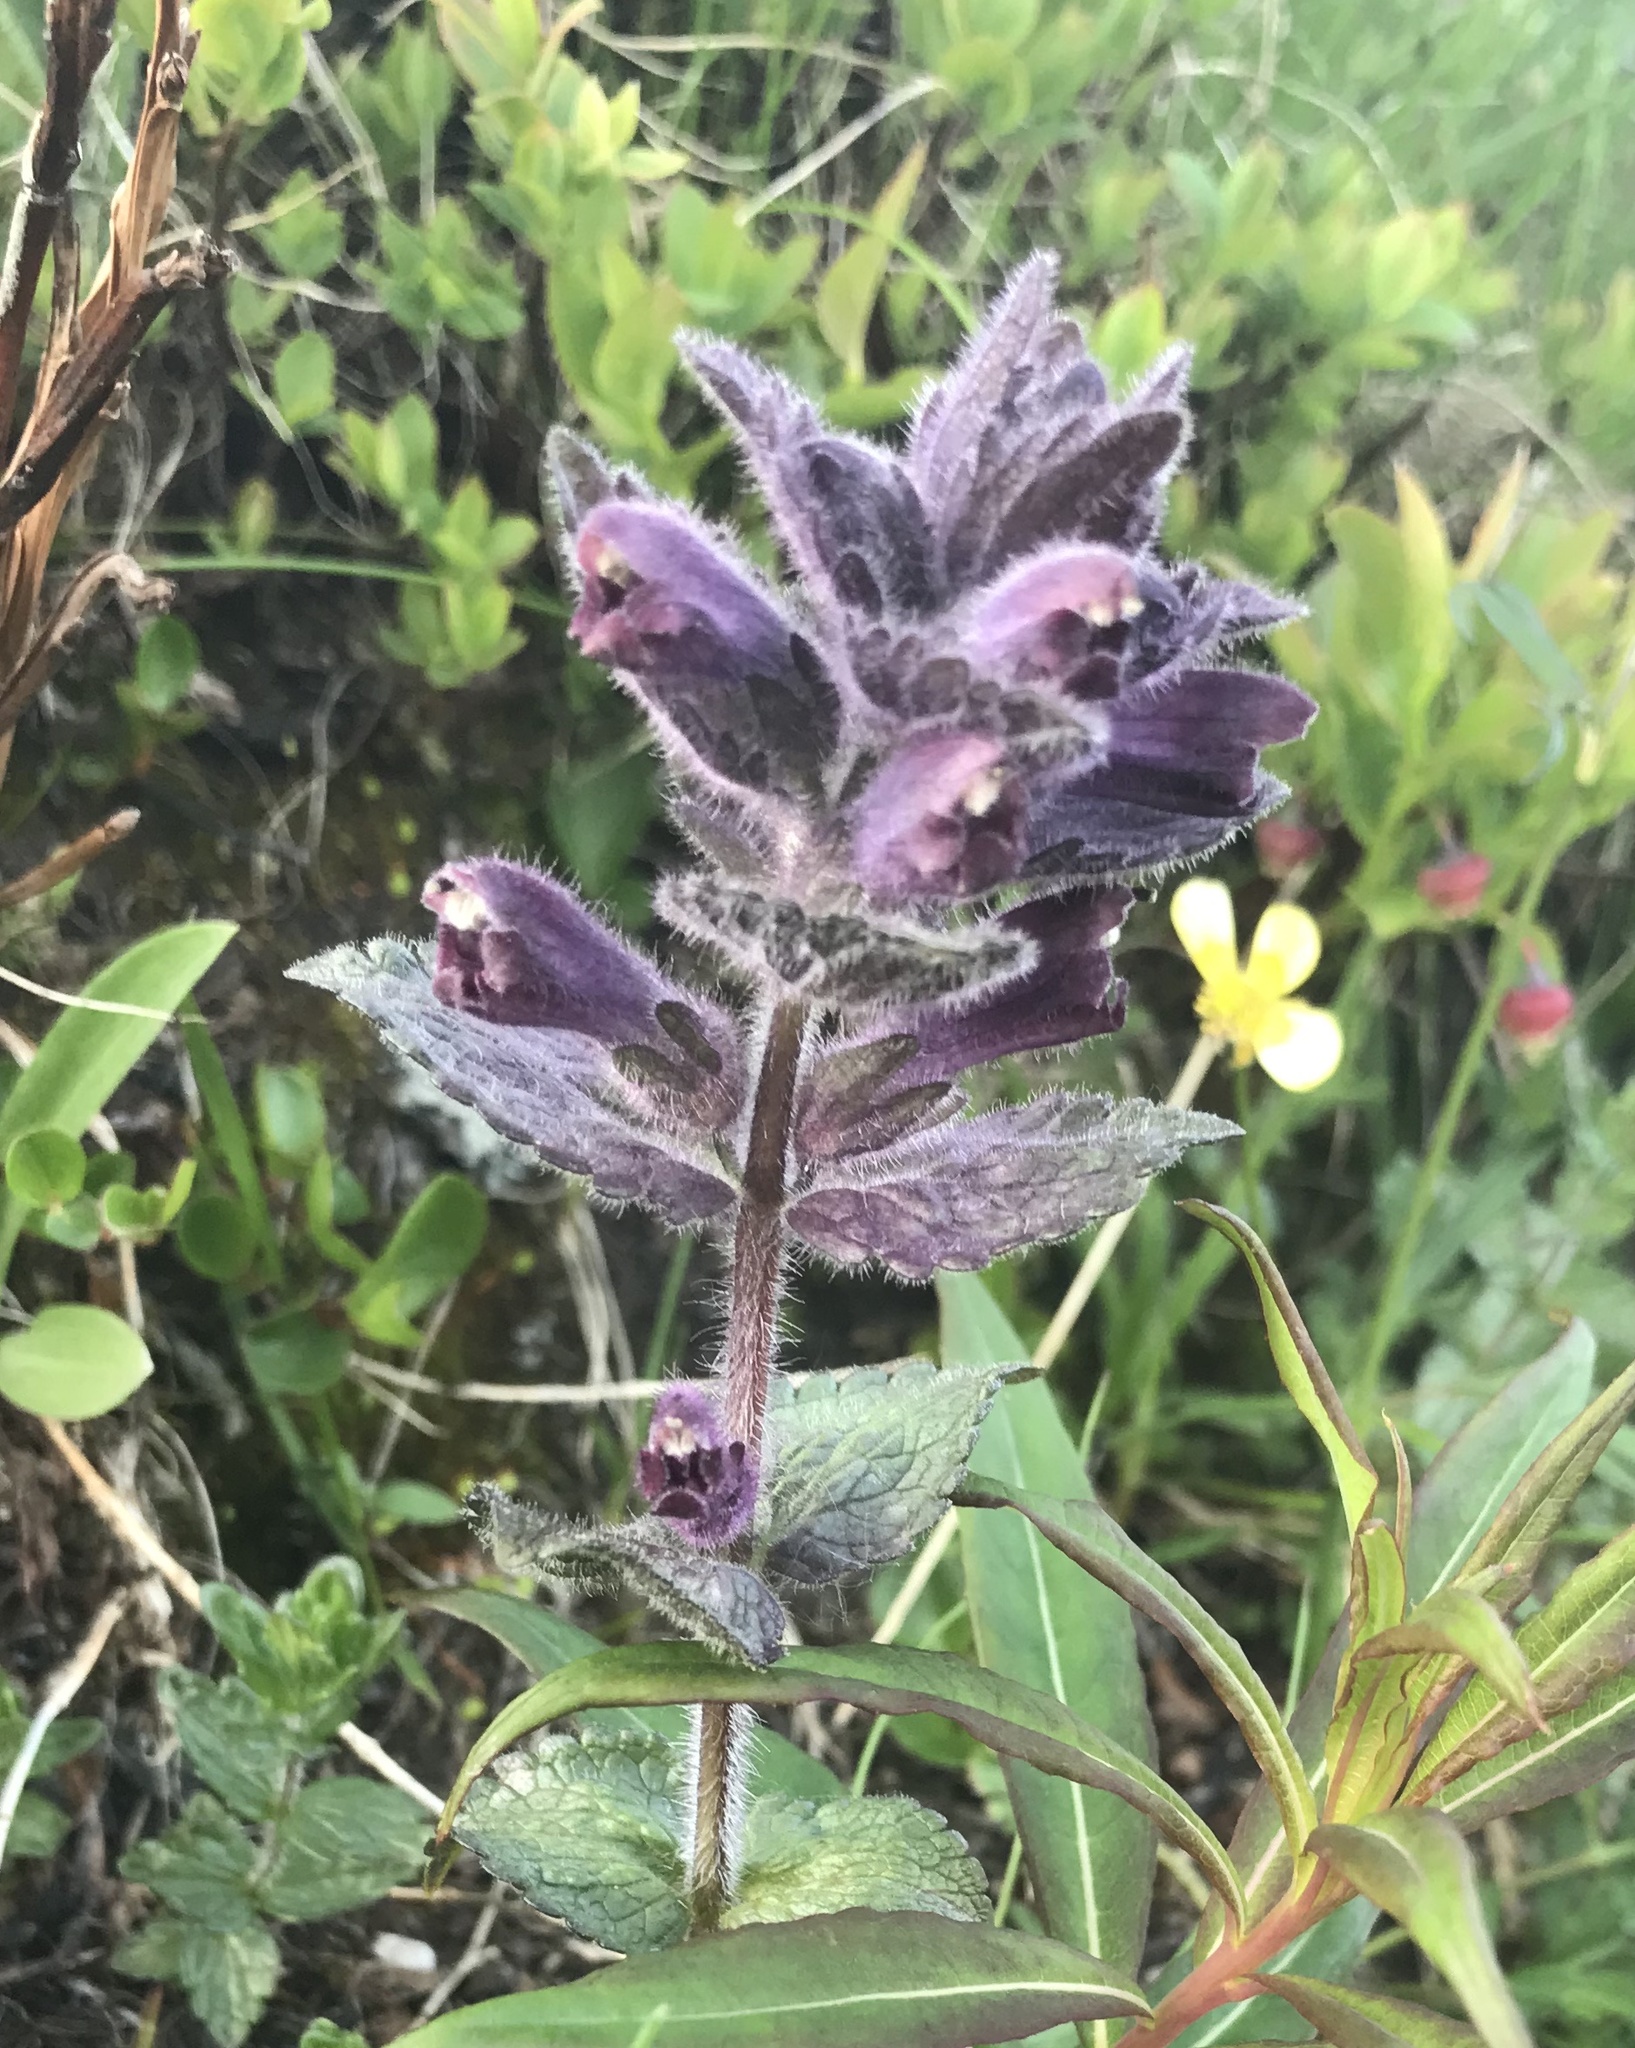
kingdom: Plantae
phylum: Tracheophyta
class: Magnoliopsida
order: Lamiales
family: Orobanchaceae
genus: Bartsia
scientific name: Bartsia alpina
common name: Alpine bartsia
